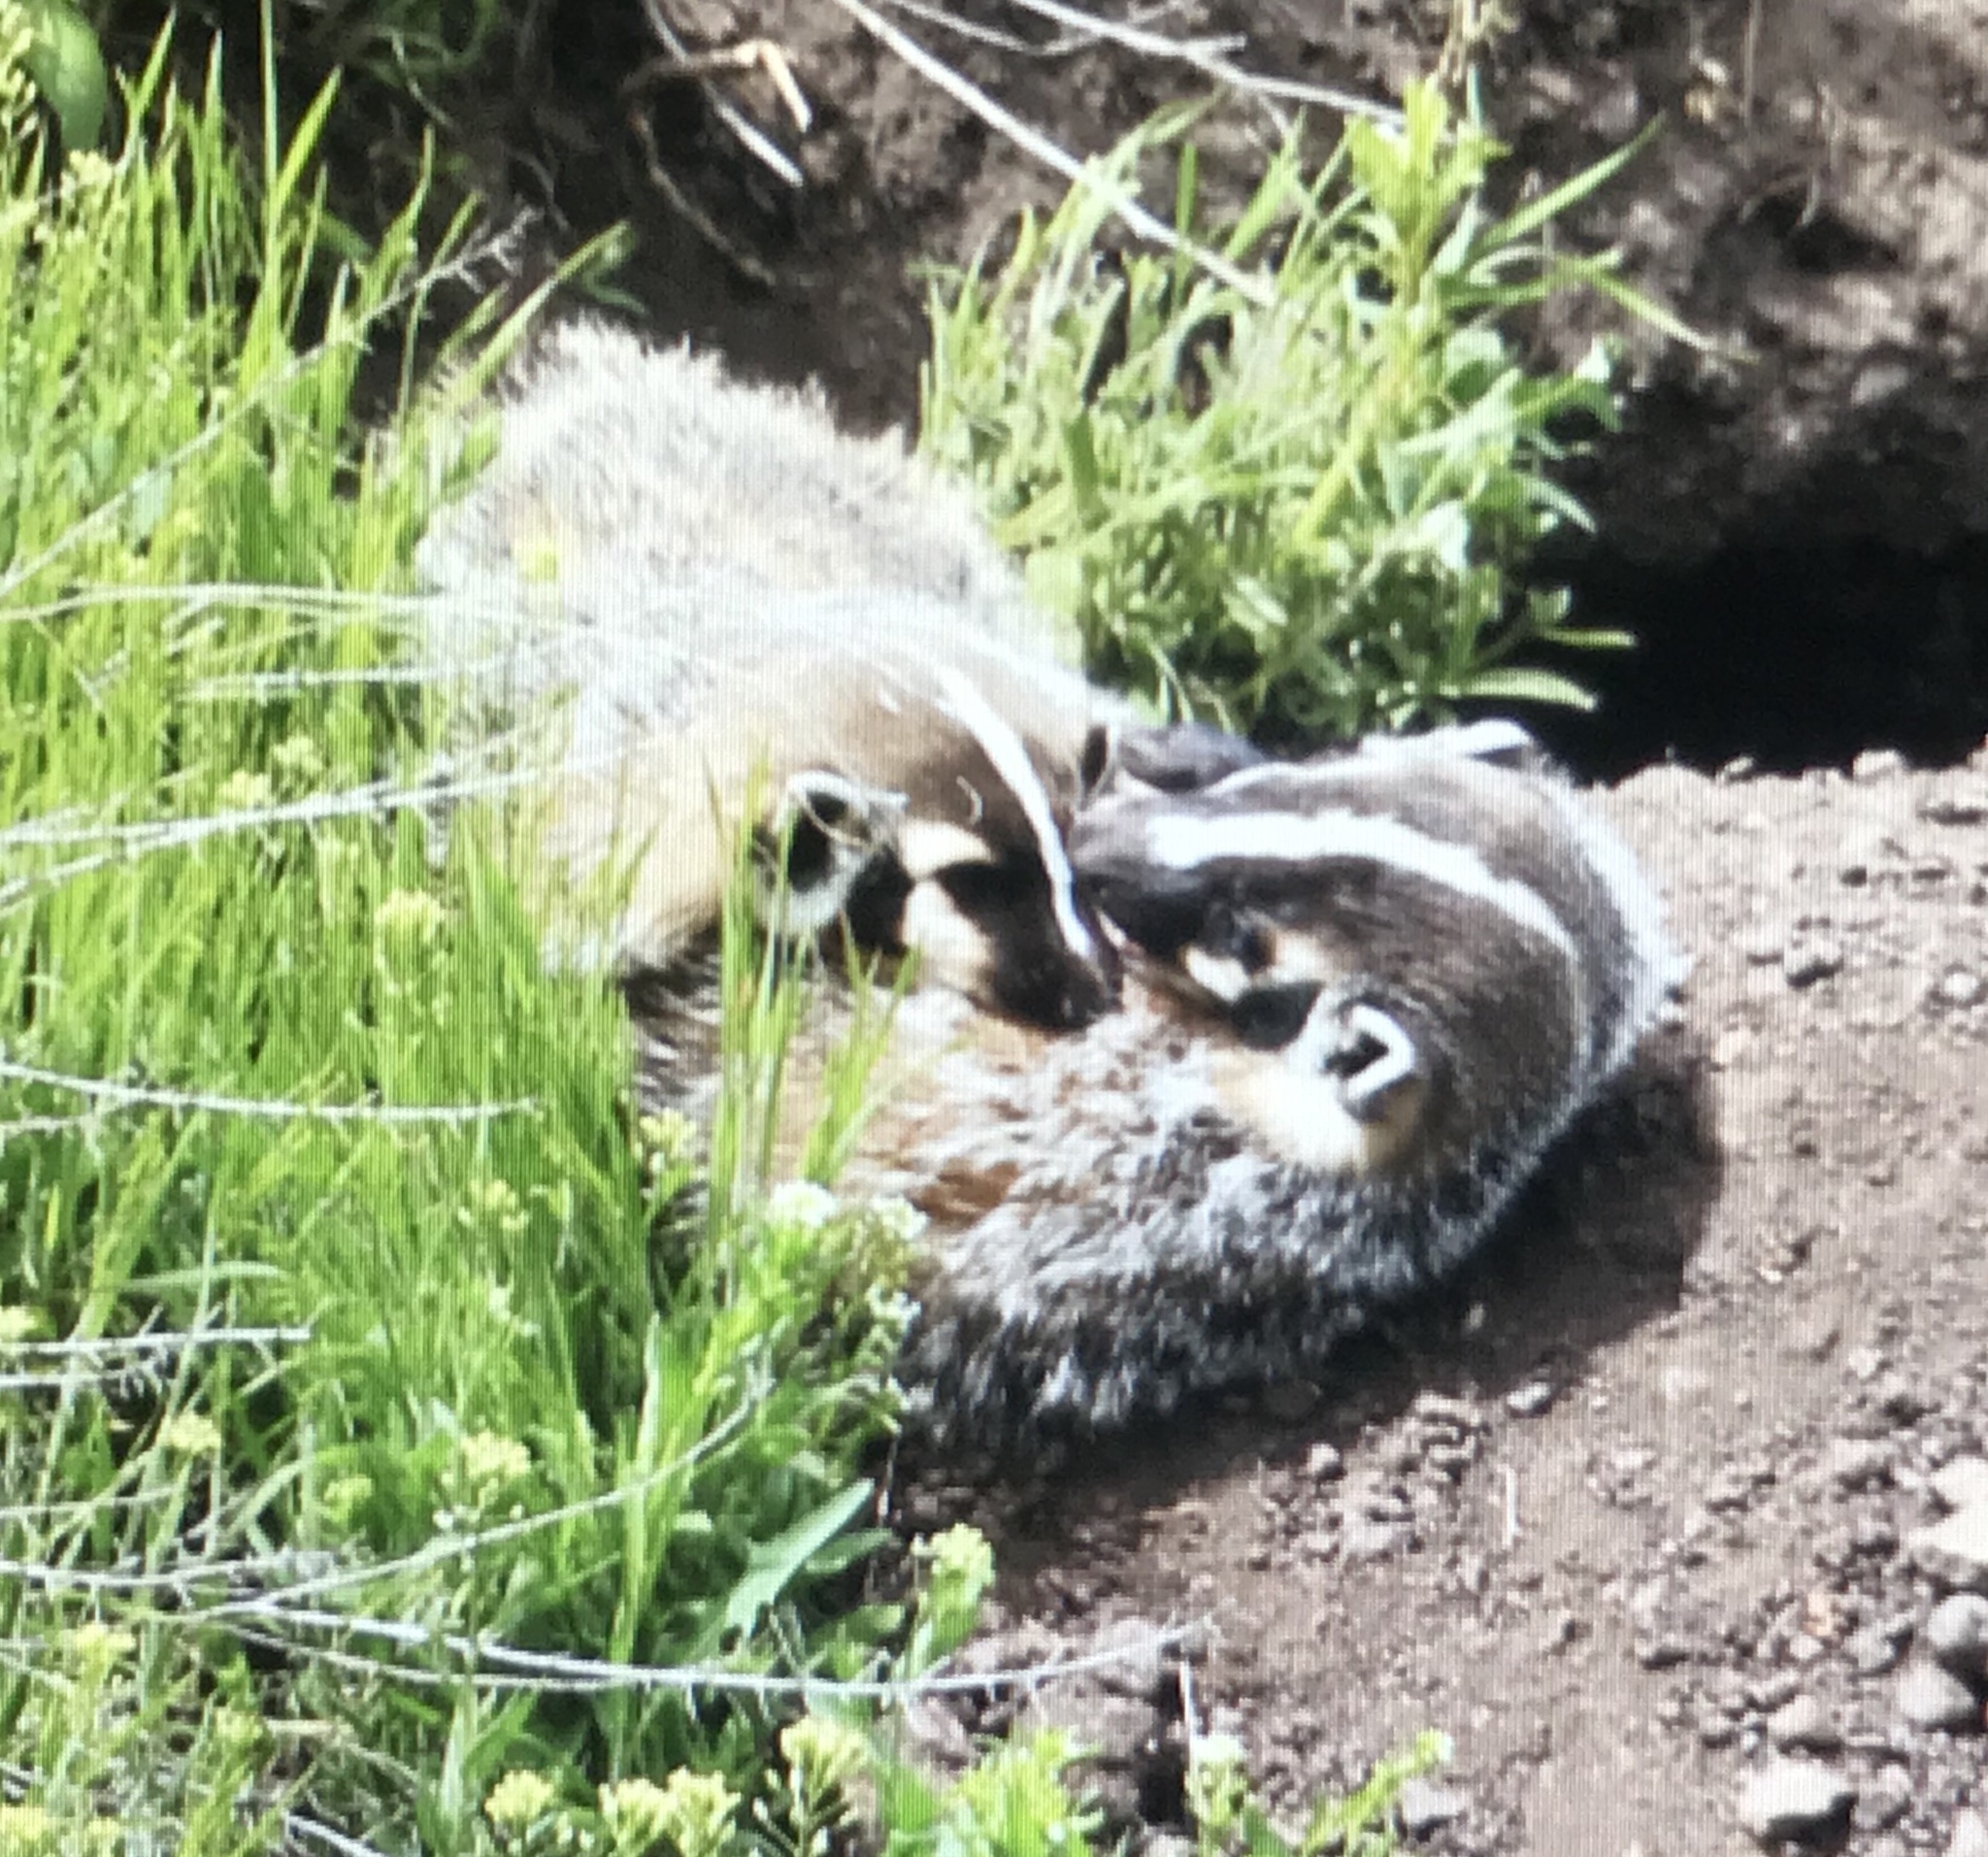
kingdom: Animalia
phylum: Chordata
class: Mammalia
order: Carnivora
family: Mustelidae
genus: Taxidea
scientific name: Taxidea taxus
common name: American badger
